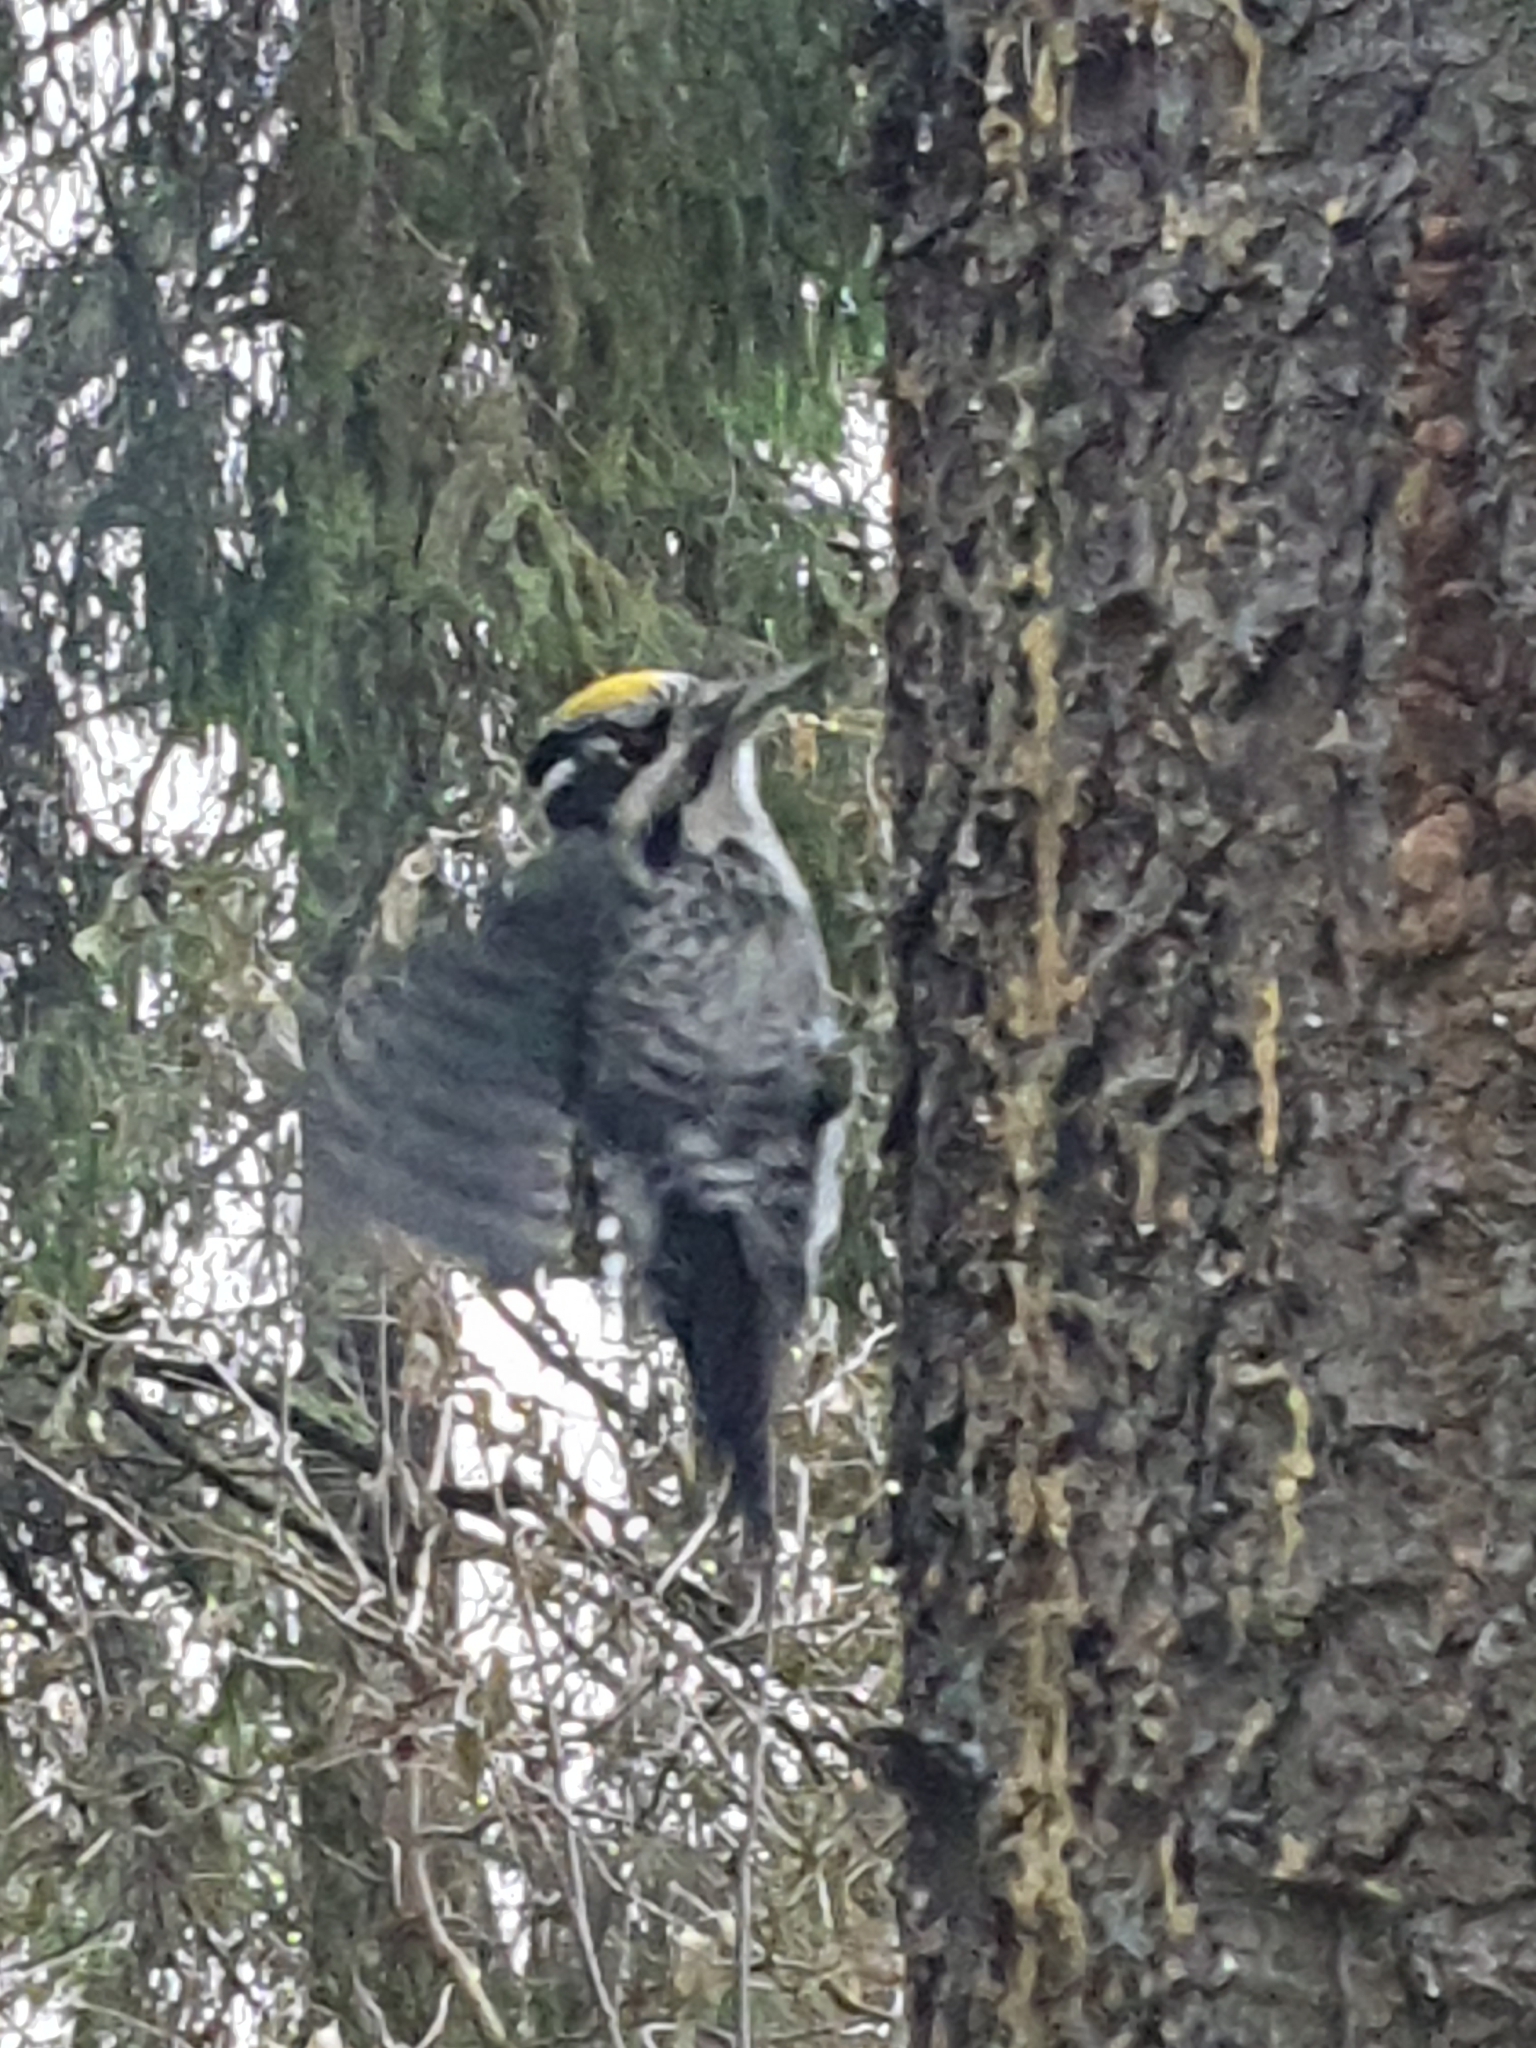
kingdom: Animalia
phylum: Chordata
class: Aves
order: Piciformes
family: Picidae
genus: Picoides
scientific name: Picoides tridactylus
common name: Eurasian three-toed woodpecker
